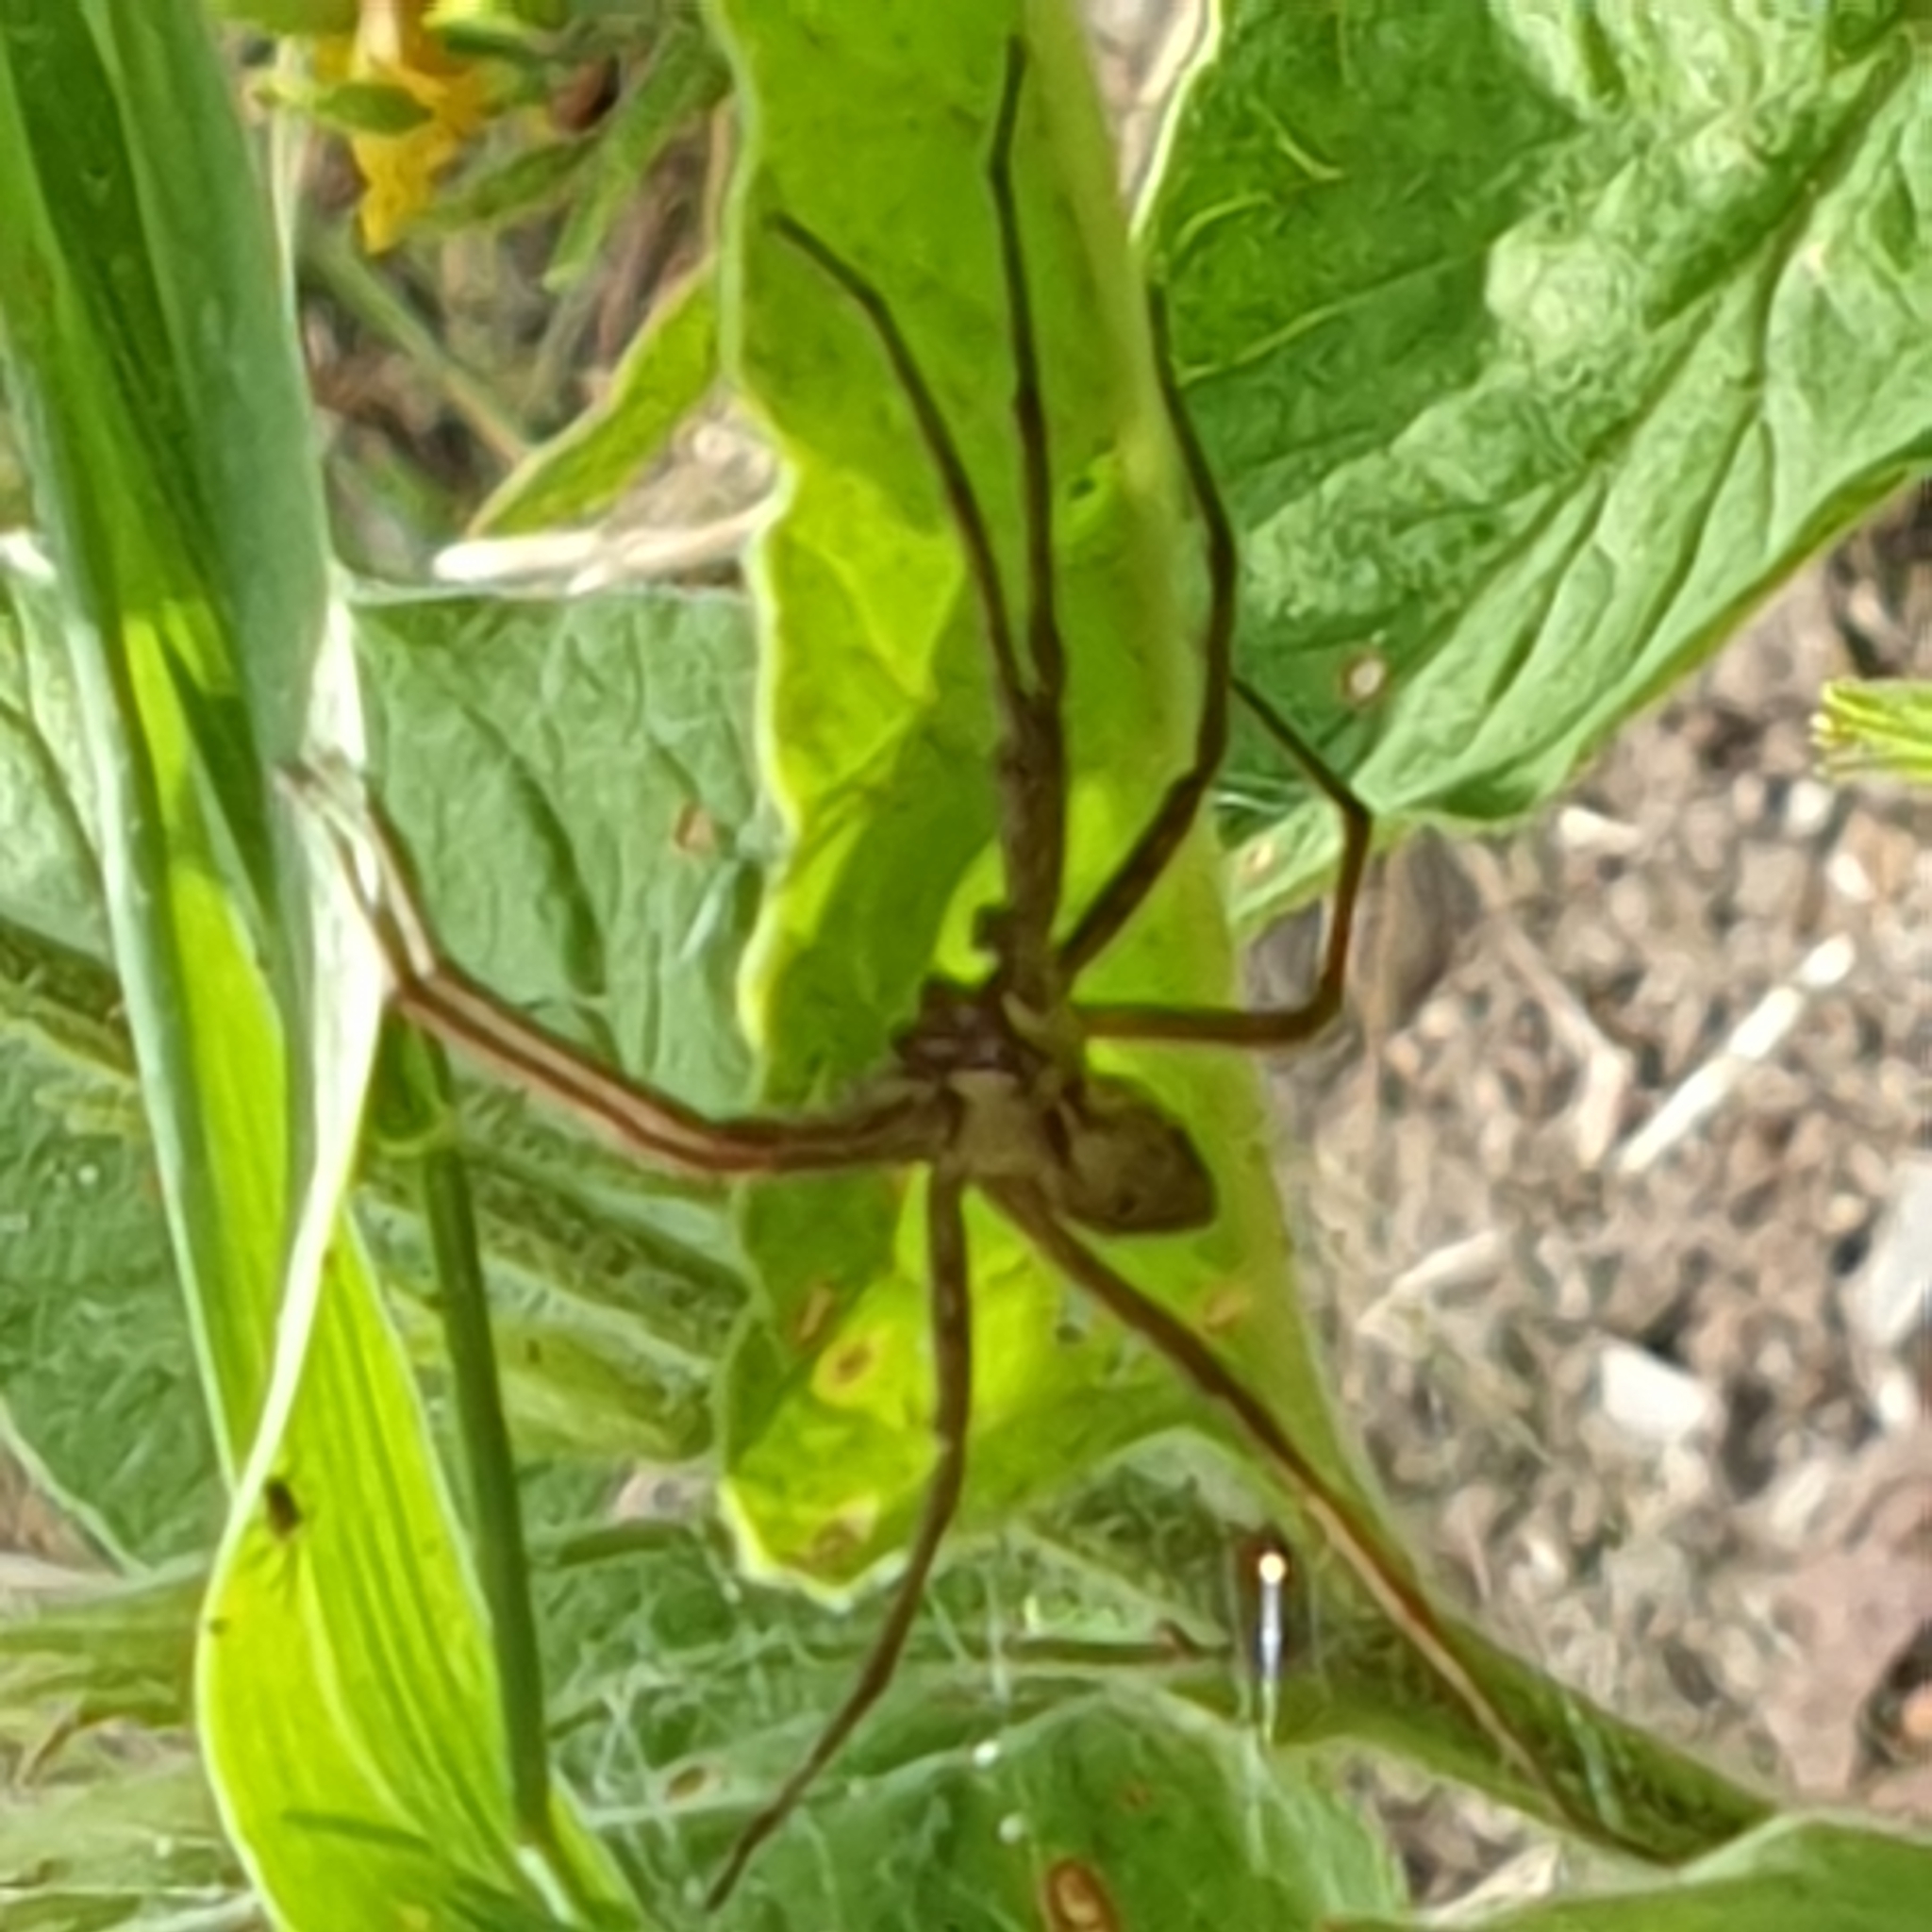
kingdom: Animalia
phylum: Arthropoda
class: Arachnida
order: Araneae
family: Pisauridae
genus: Pisaura
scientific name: Pisaura mirabilis
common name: Tent spider
